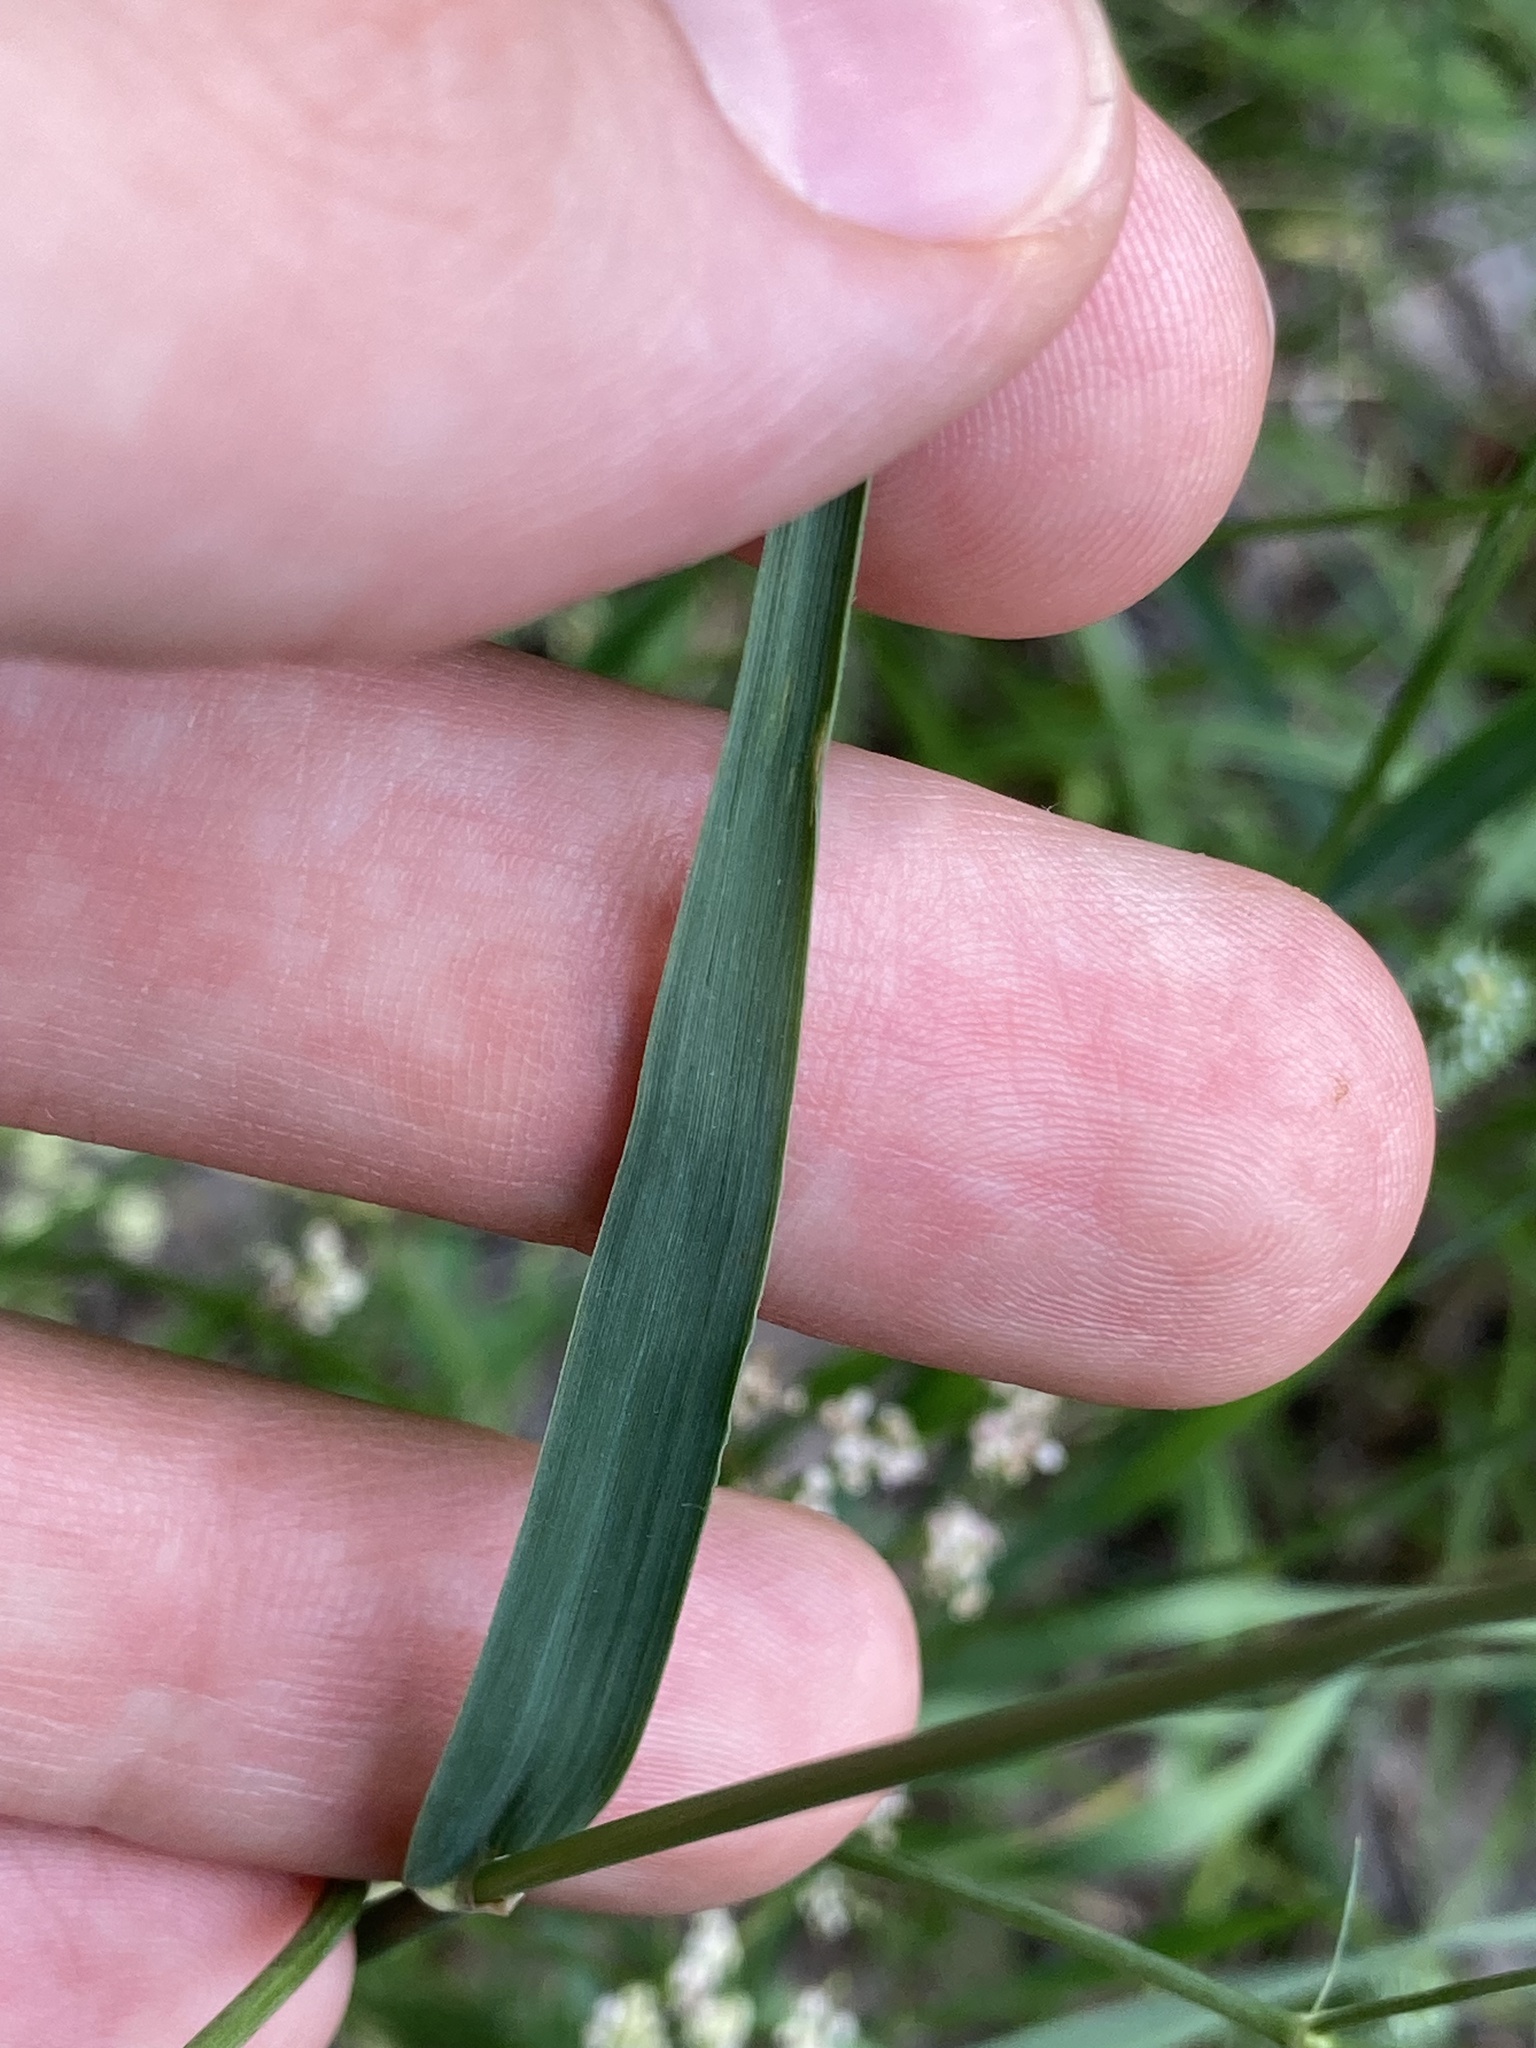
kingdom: Plantae
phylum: Tracheophyta
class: Liliopsida
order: Poales
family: Poaceae
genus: Phleum
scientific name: Phleum pratense
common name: Timothy grass
